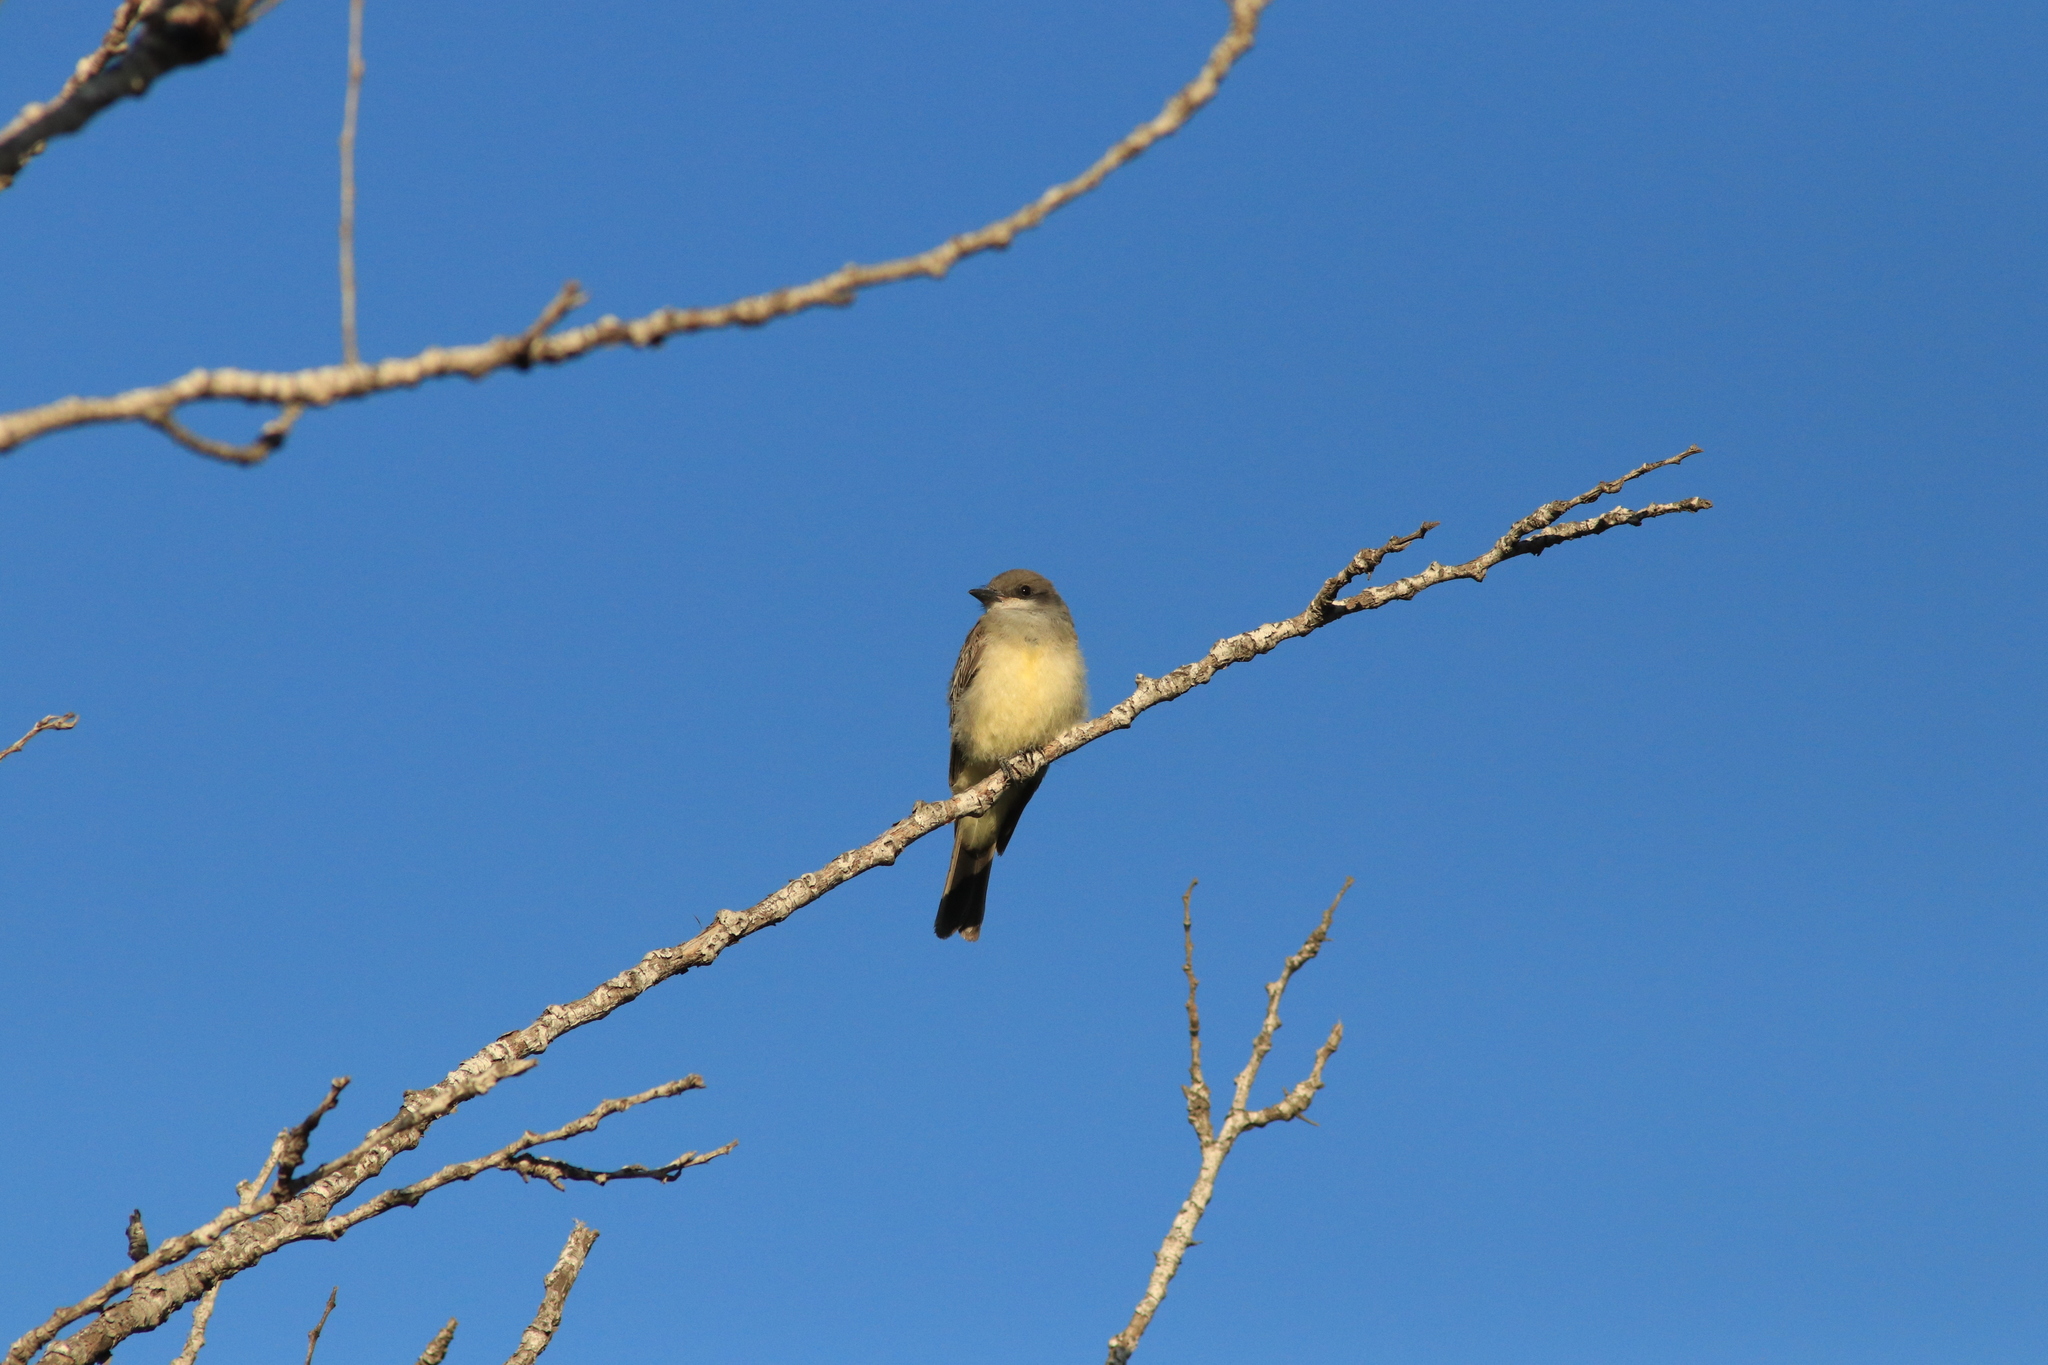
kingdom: Animalia
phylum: Chordata
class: Aves
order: Passeriformes
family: Tyrannidae
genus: Tyrannus
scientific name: Tyrannus vociferans
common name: Cassin's kingbird
